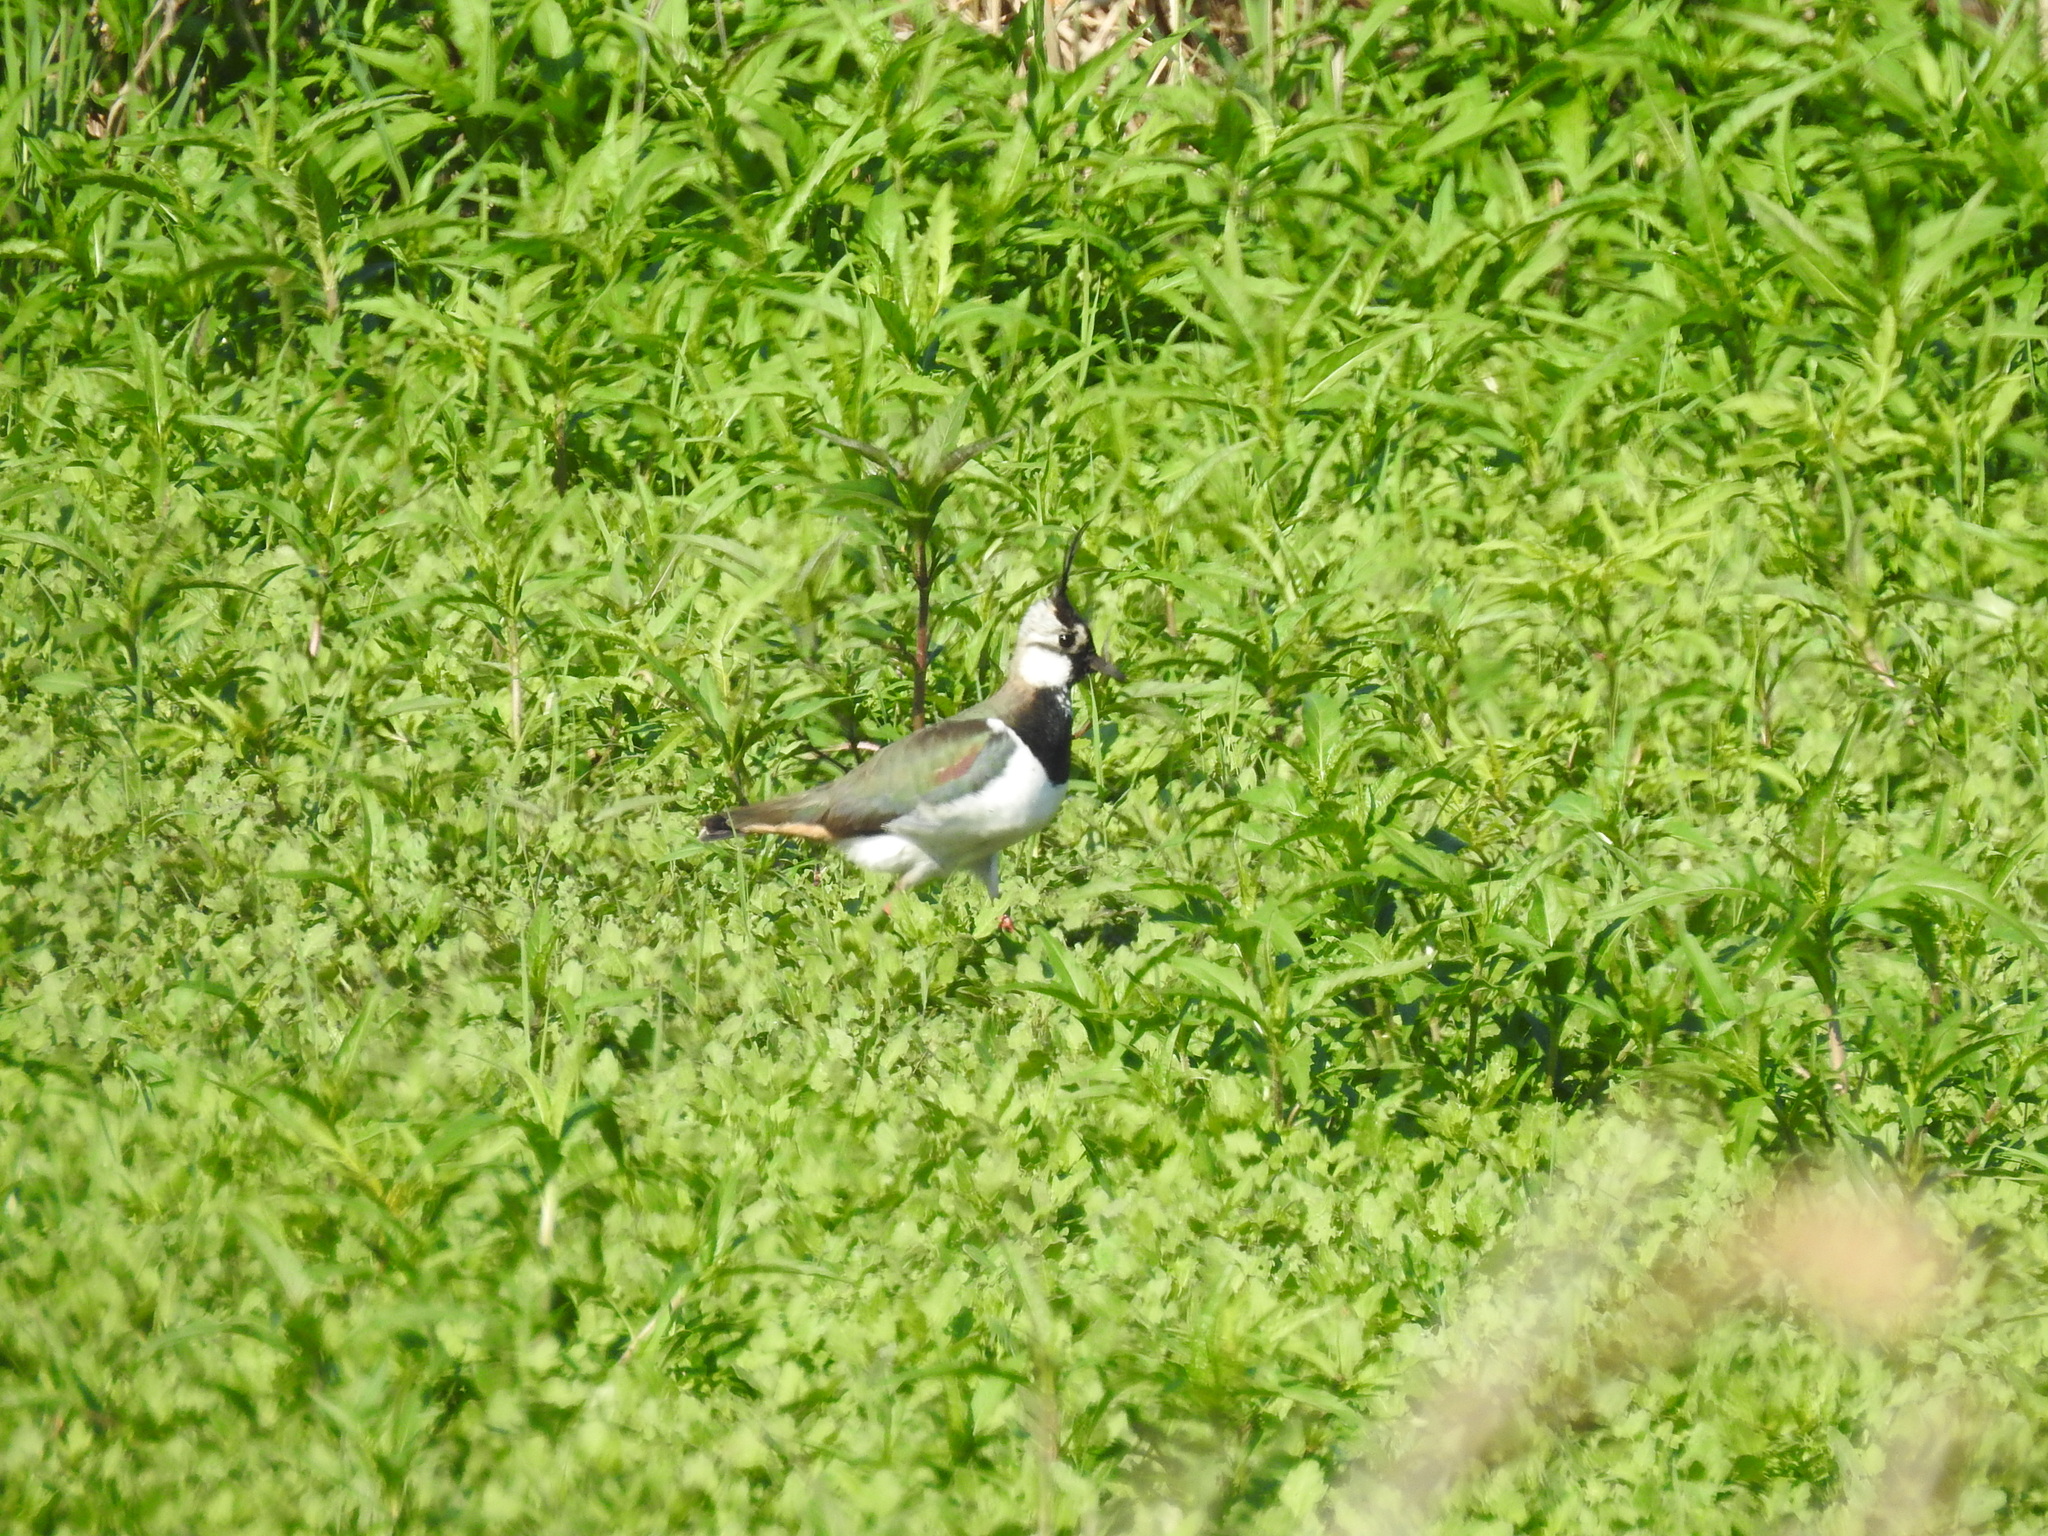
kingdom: Animalia
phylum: Chordata
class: Aves
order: Charadriiformes
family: Charadriidae
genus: Vanellus
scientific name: Vanellus vanellus
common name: Northern lapwing
